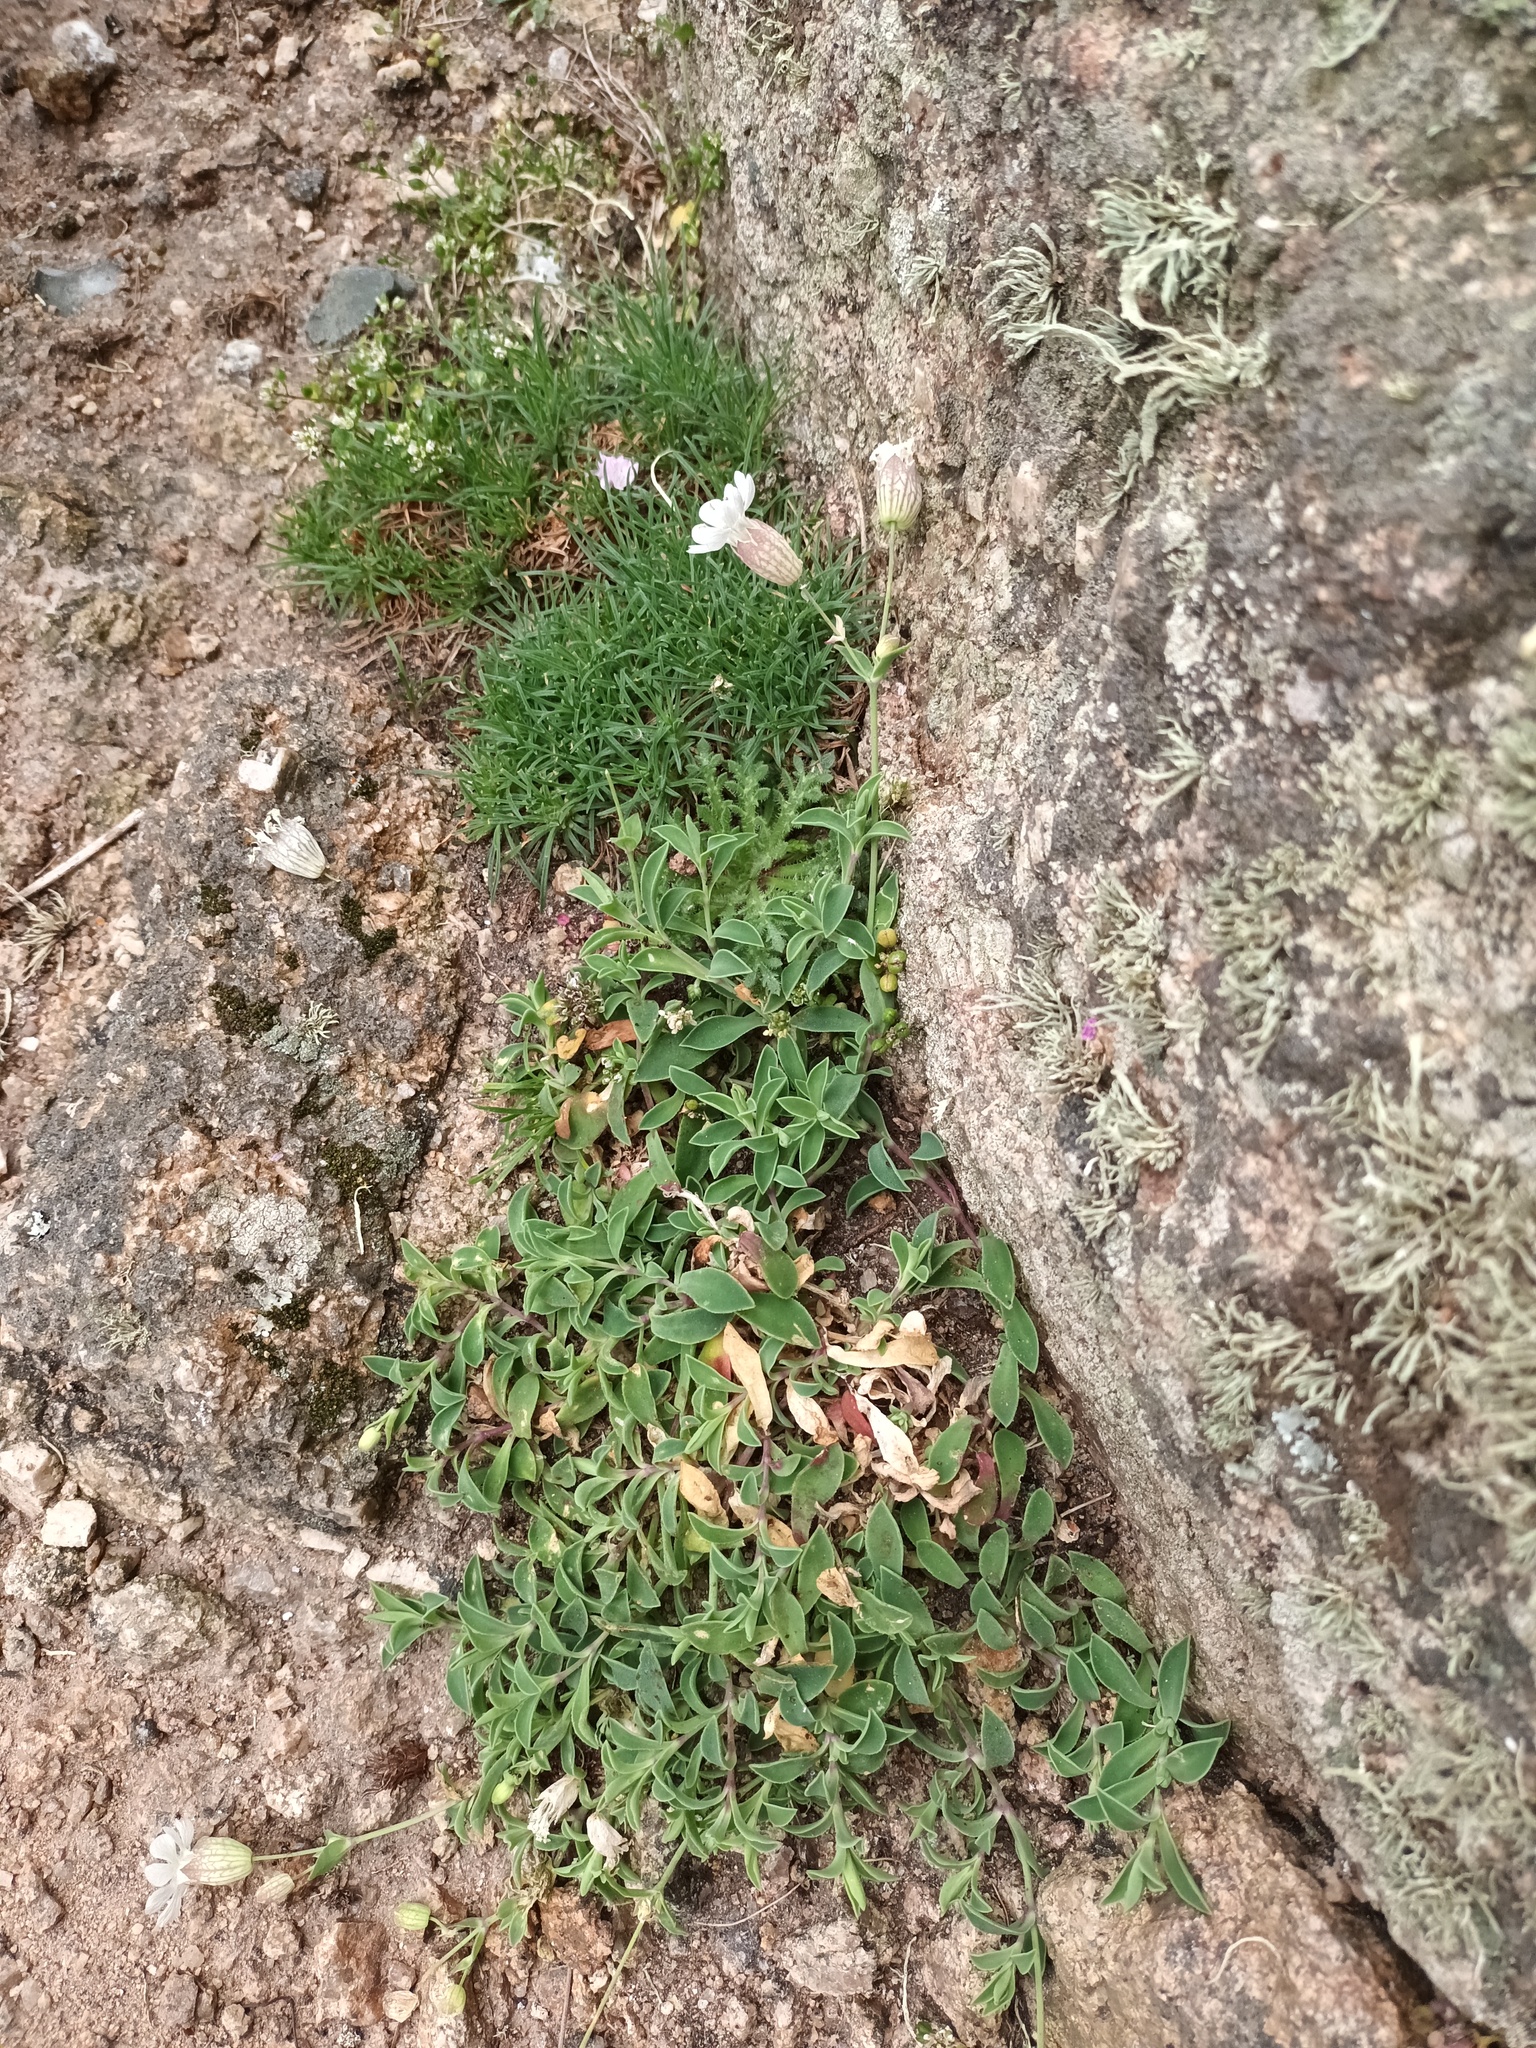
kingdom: Plantae
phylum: Tracheophyta
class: Magnoliopsida
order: Caryophyllales
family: Caryophyllaceae
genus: Silene
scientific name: Silene uniflora
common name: Sea campion
